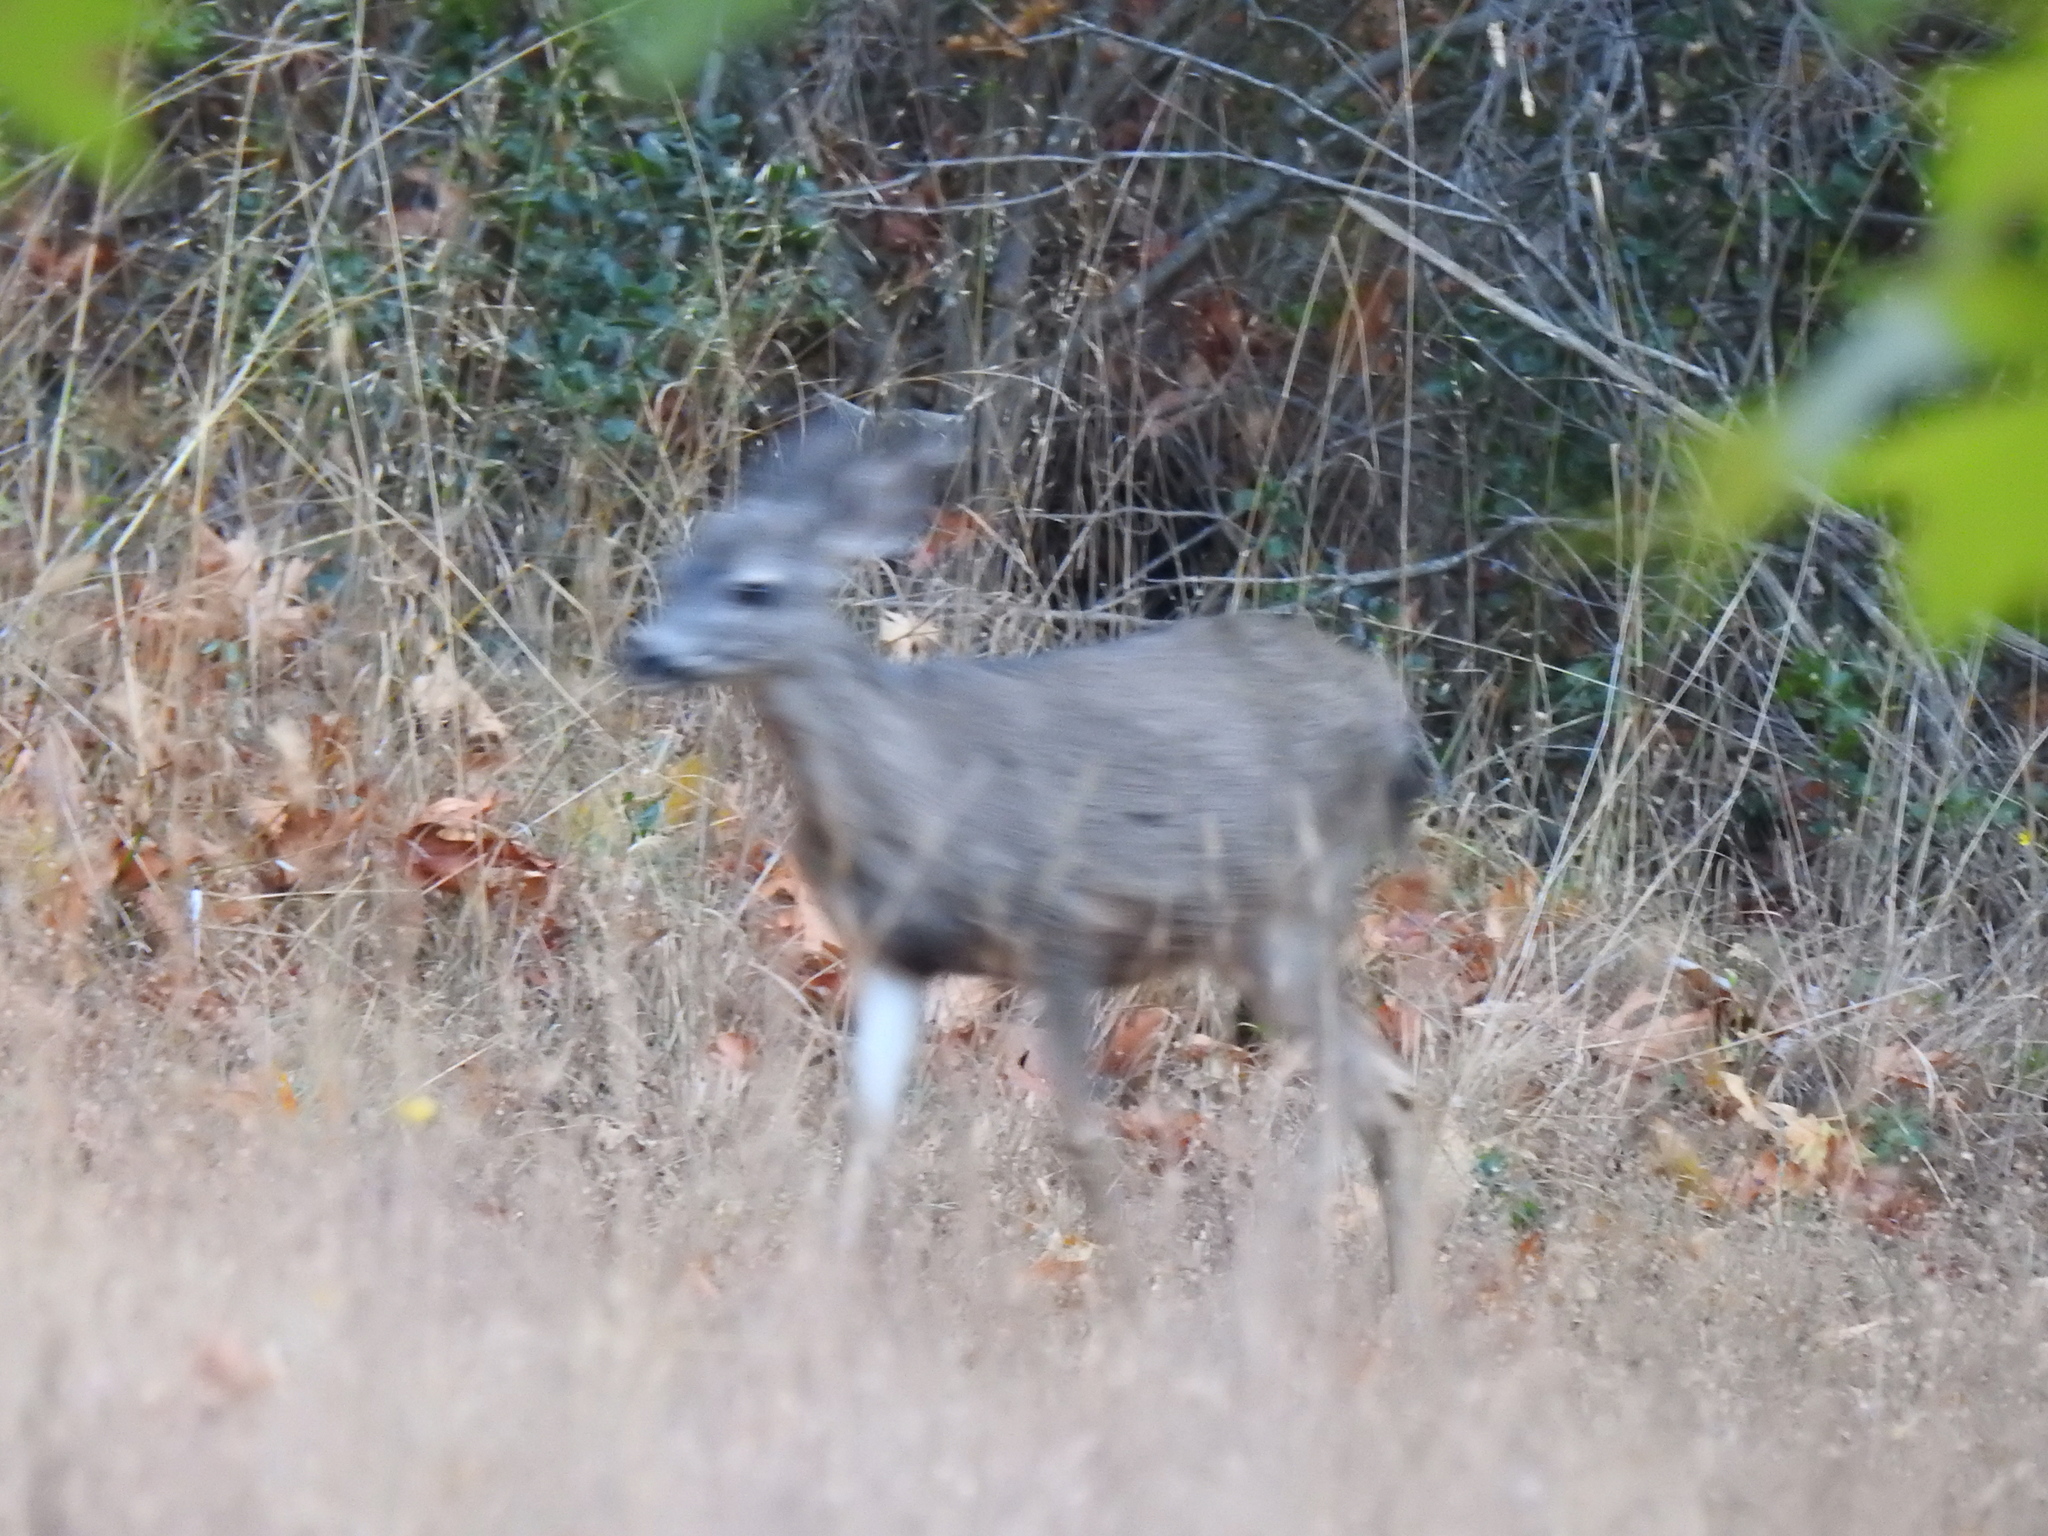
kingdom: Animalia
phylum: Chordata
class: Mammalia
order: Artiodactyla
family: Cervidae
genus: Odocoileus
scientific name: Odocoileus hemionus
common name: Mule deer
